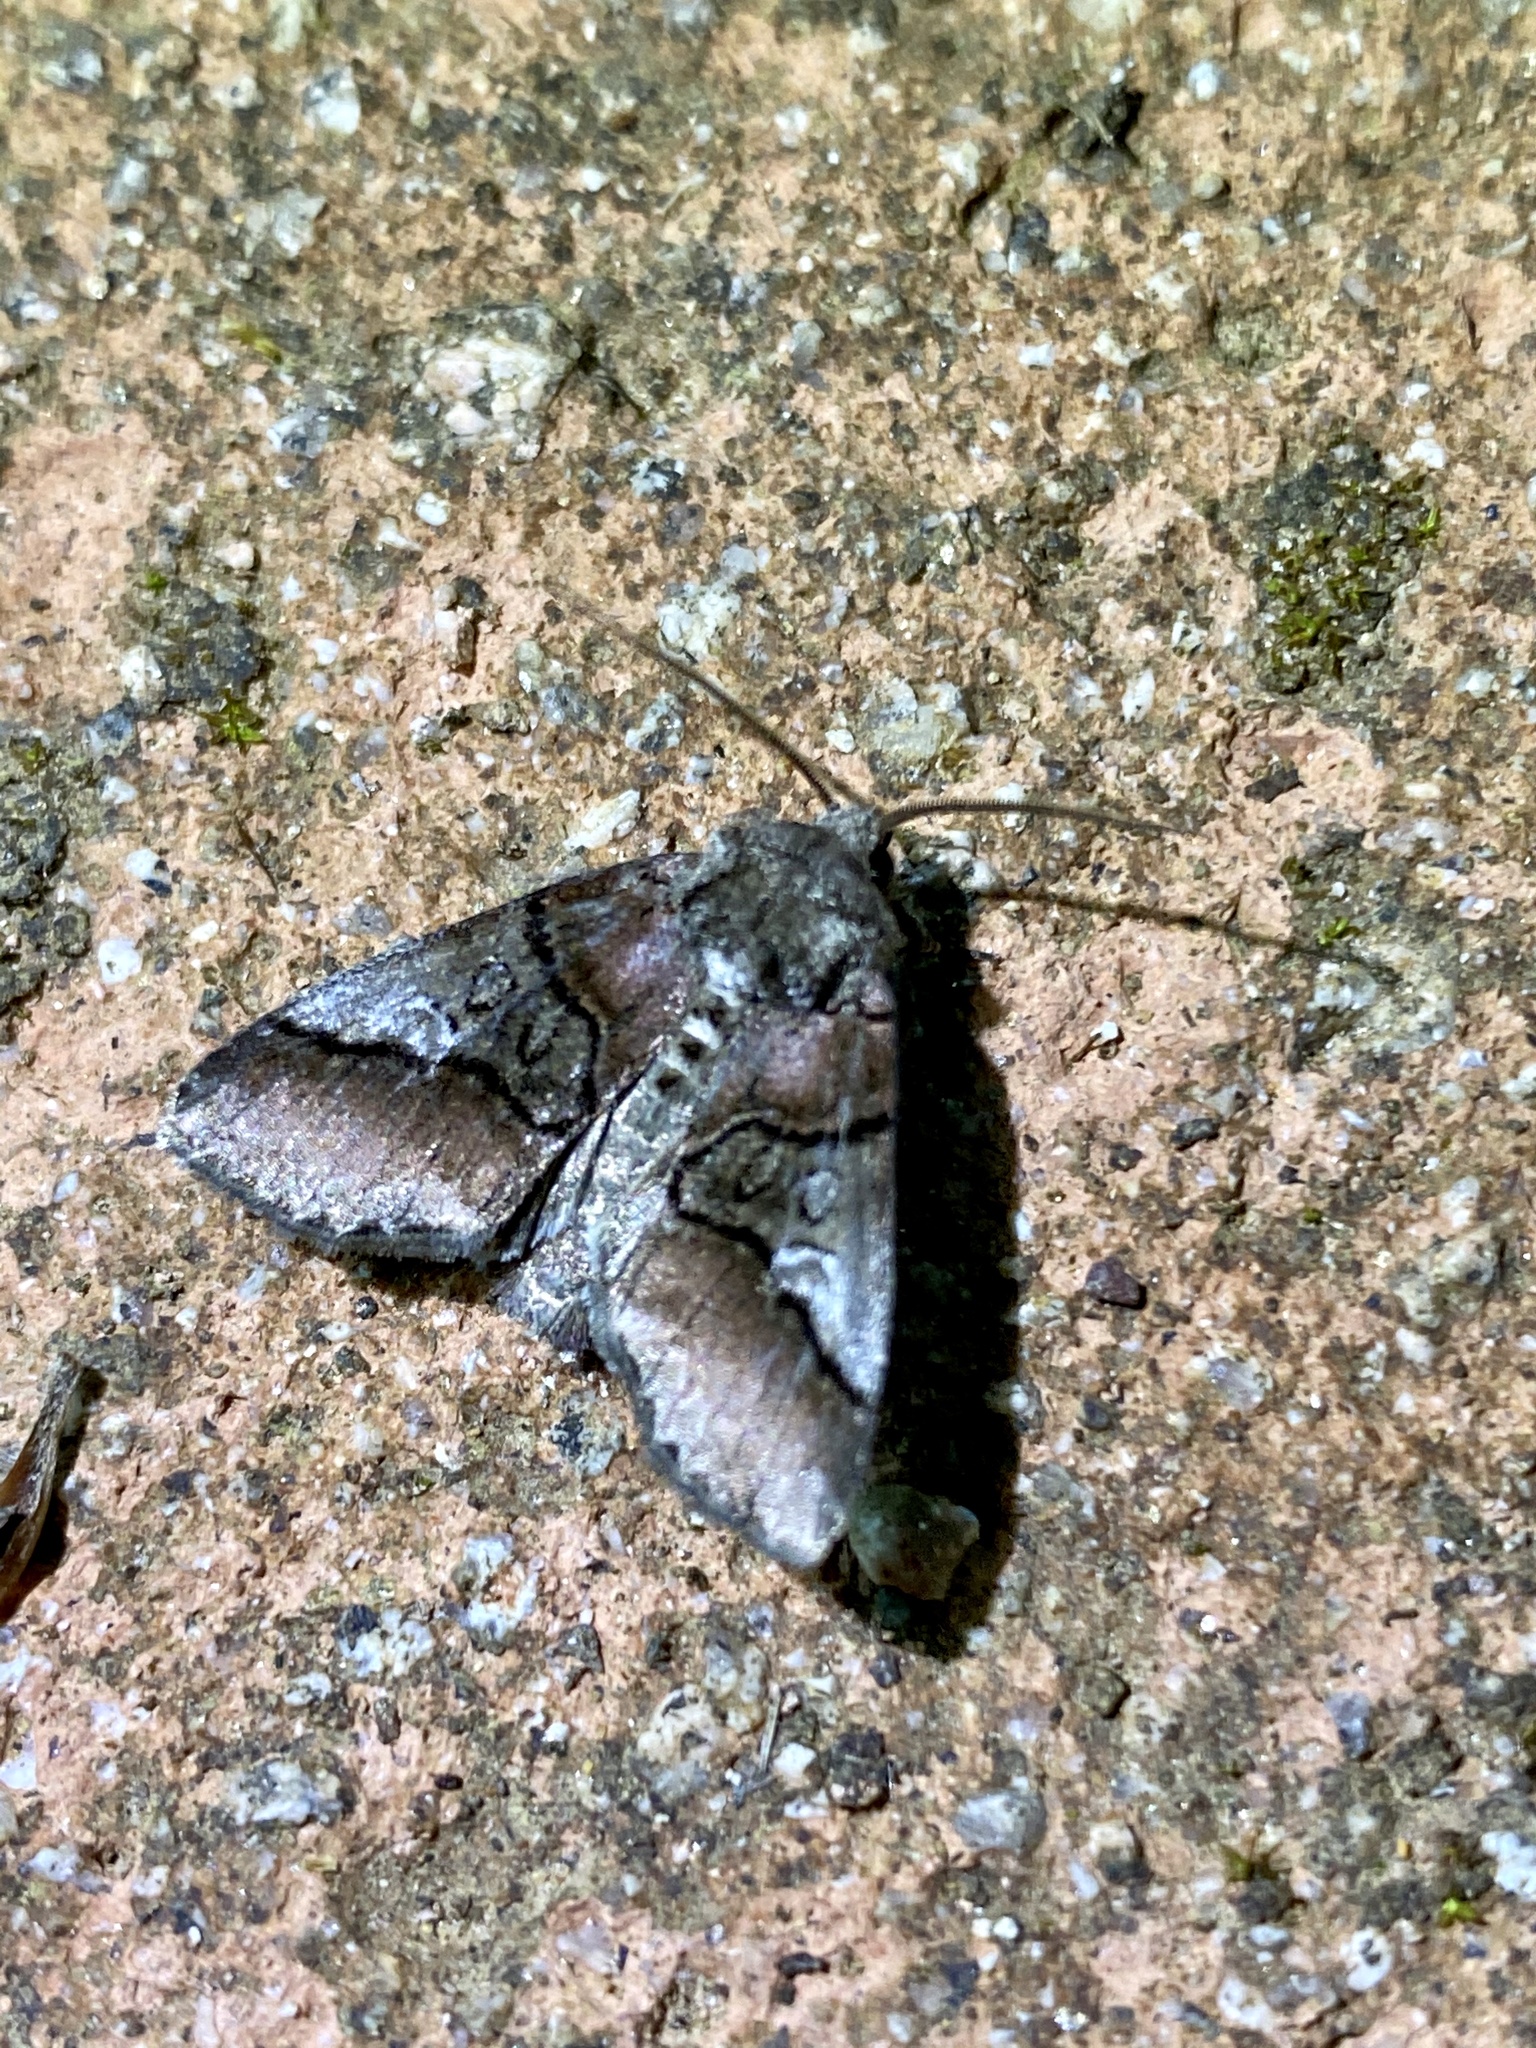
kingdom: Animalia
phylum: Arthropoda
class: Insecta
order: Lepidoptera
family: Noctuidae
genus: Protomiselia
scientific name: Protomiselia bilinea
